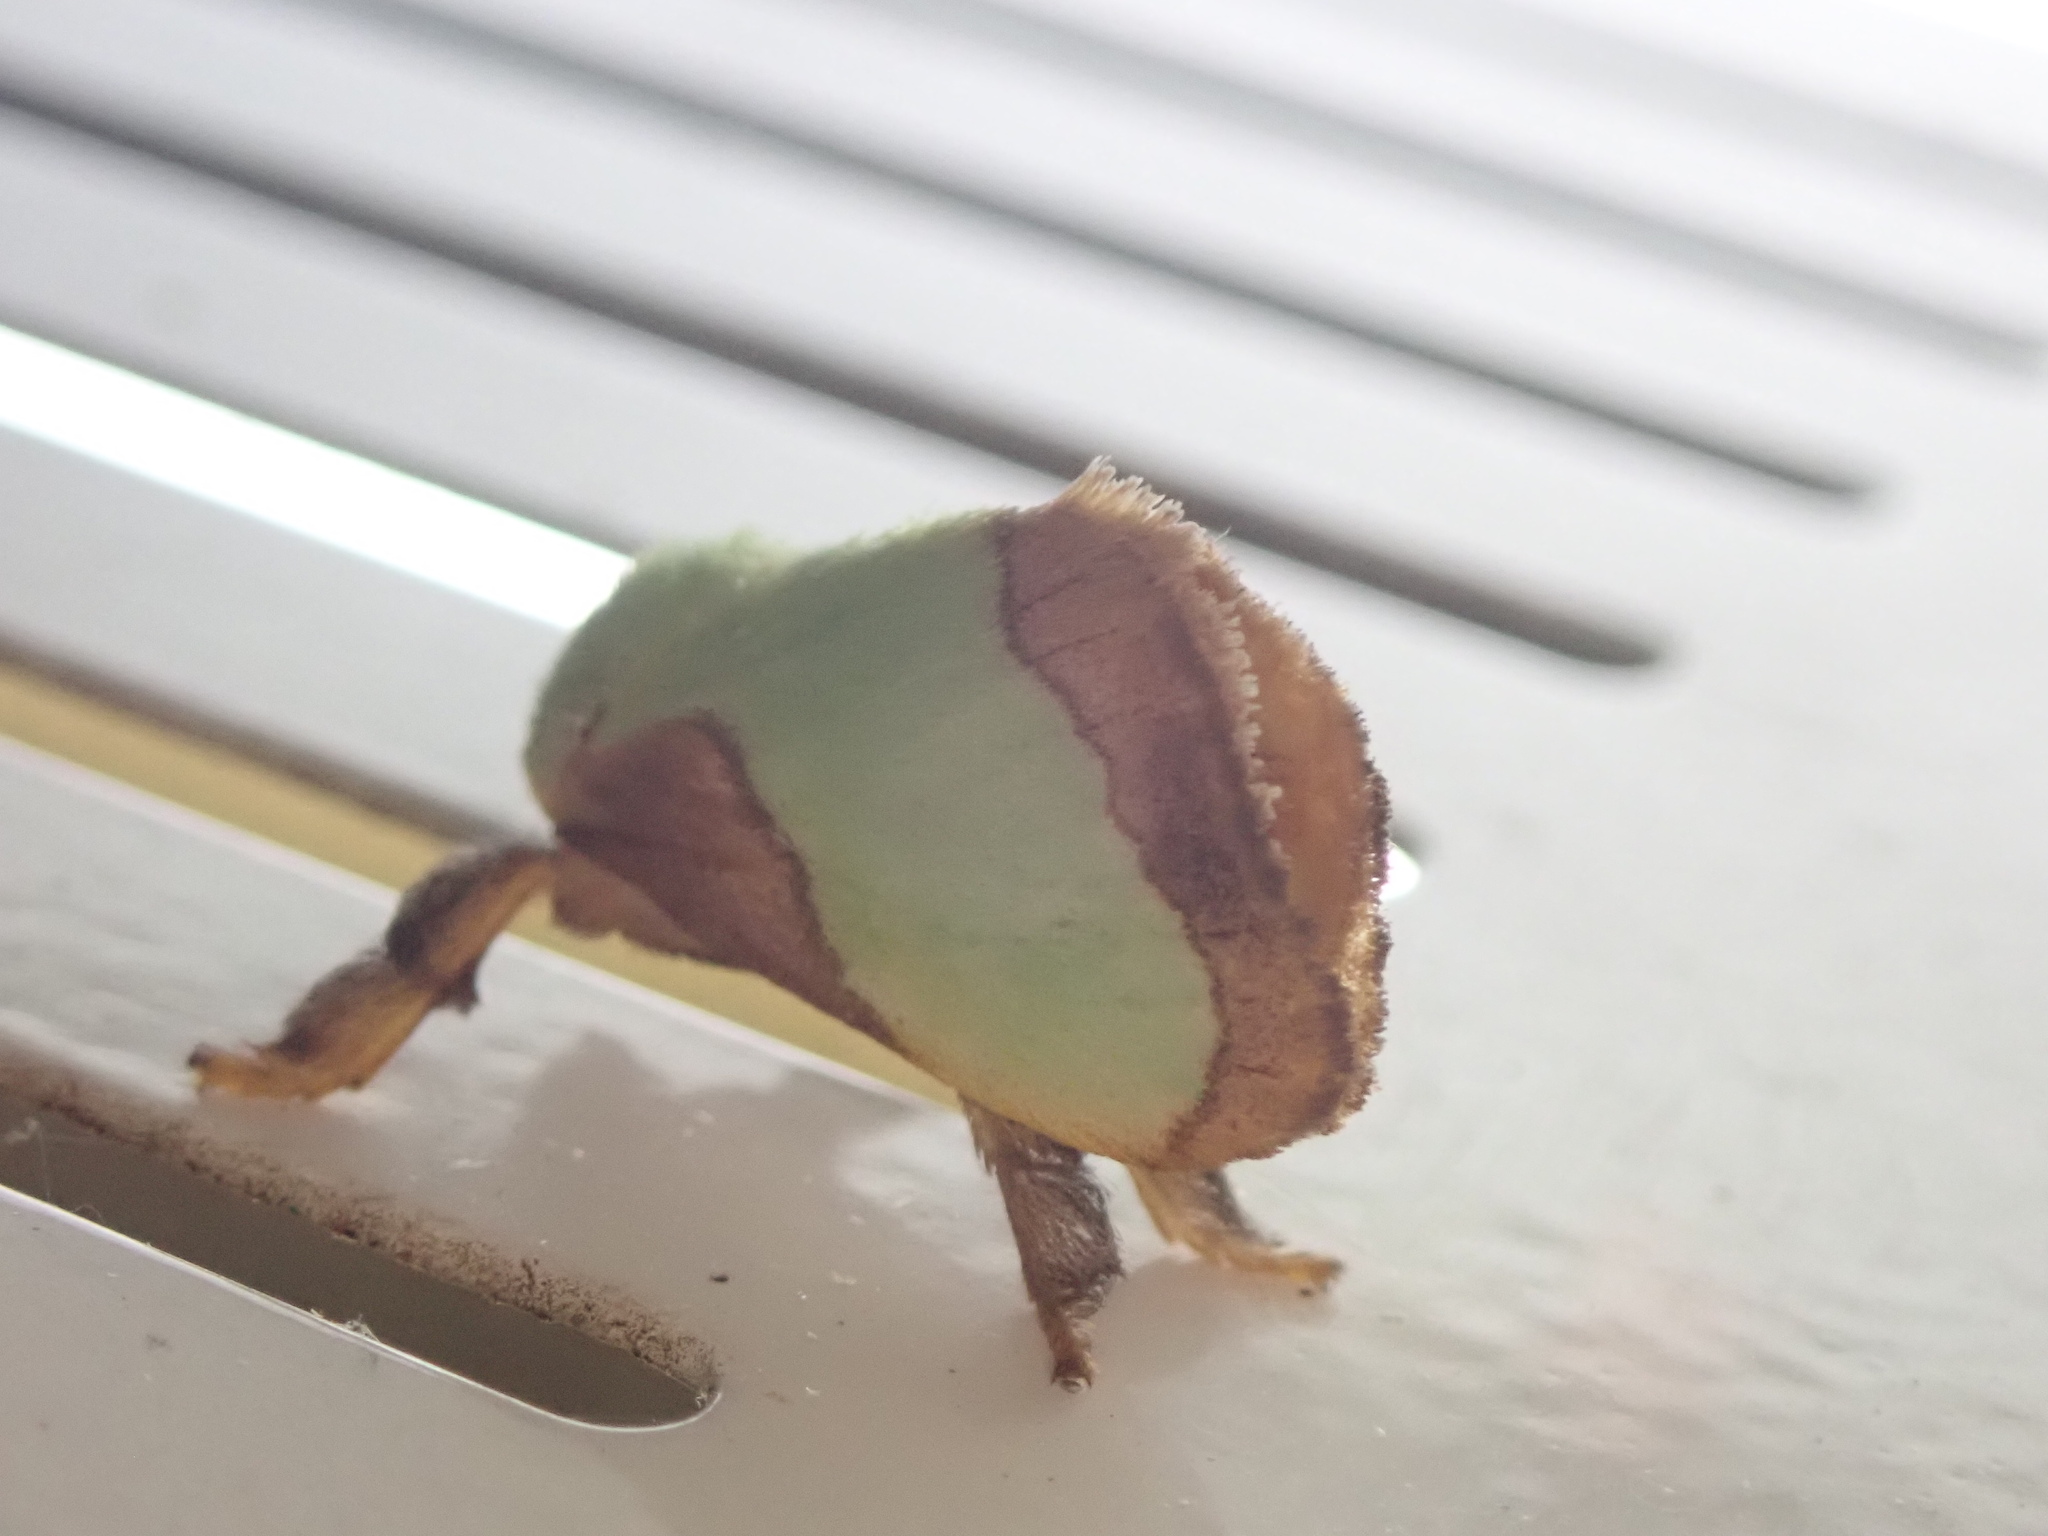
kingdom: Animalia
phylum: Arthropoda
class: Insecta
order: Lepidoptera
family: Limacodidae
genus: Parasa
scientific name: Parasa indetermina
